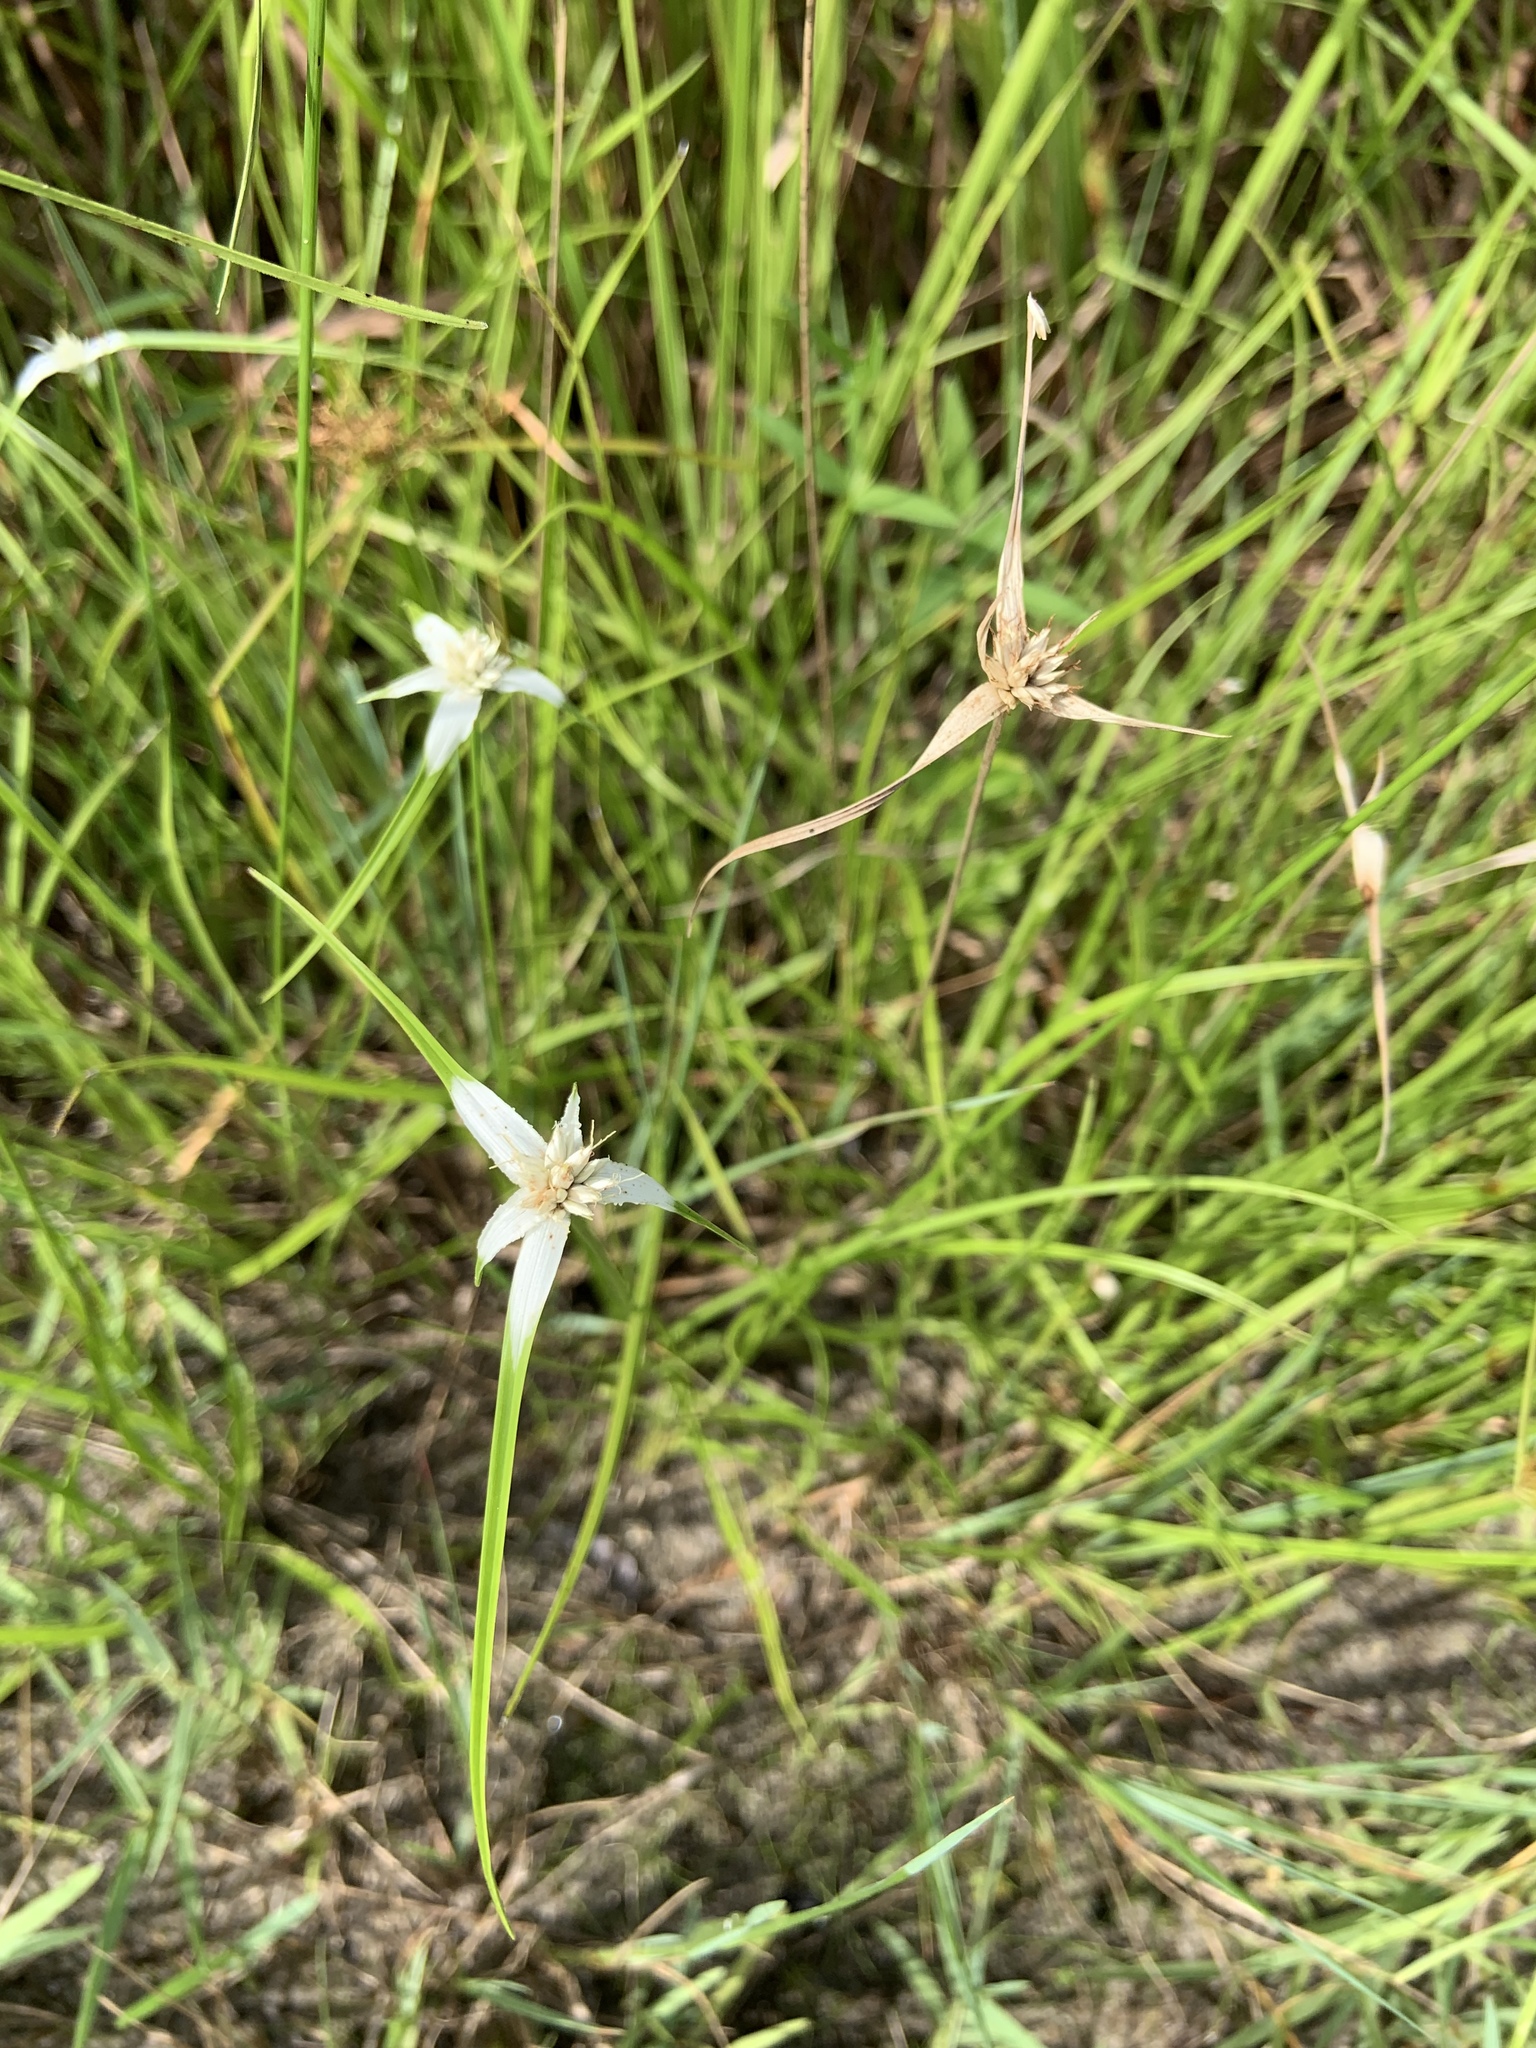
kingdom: Plantae
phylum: Tracheophyta
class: Liliopsida
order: Poales
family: Cyperaceae
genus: Rhynchospora
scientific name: Rhynchospora colorata
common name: Star sedge
